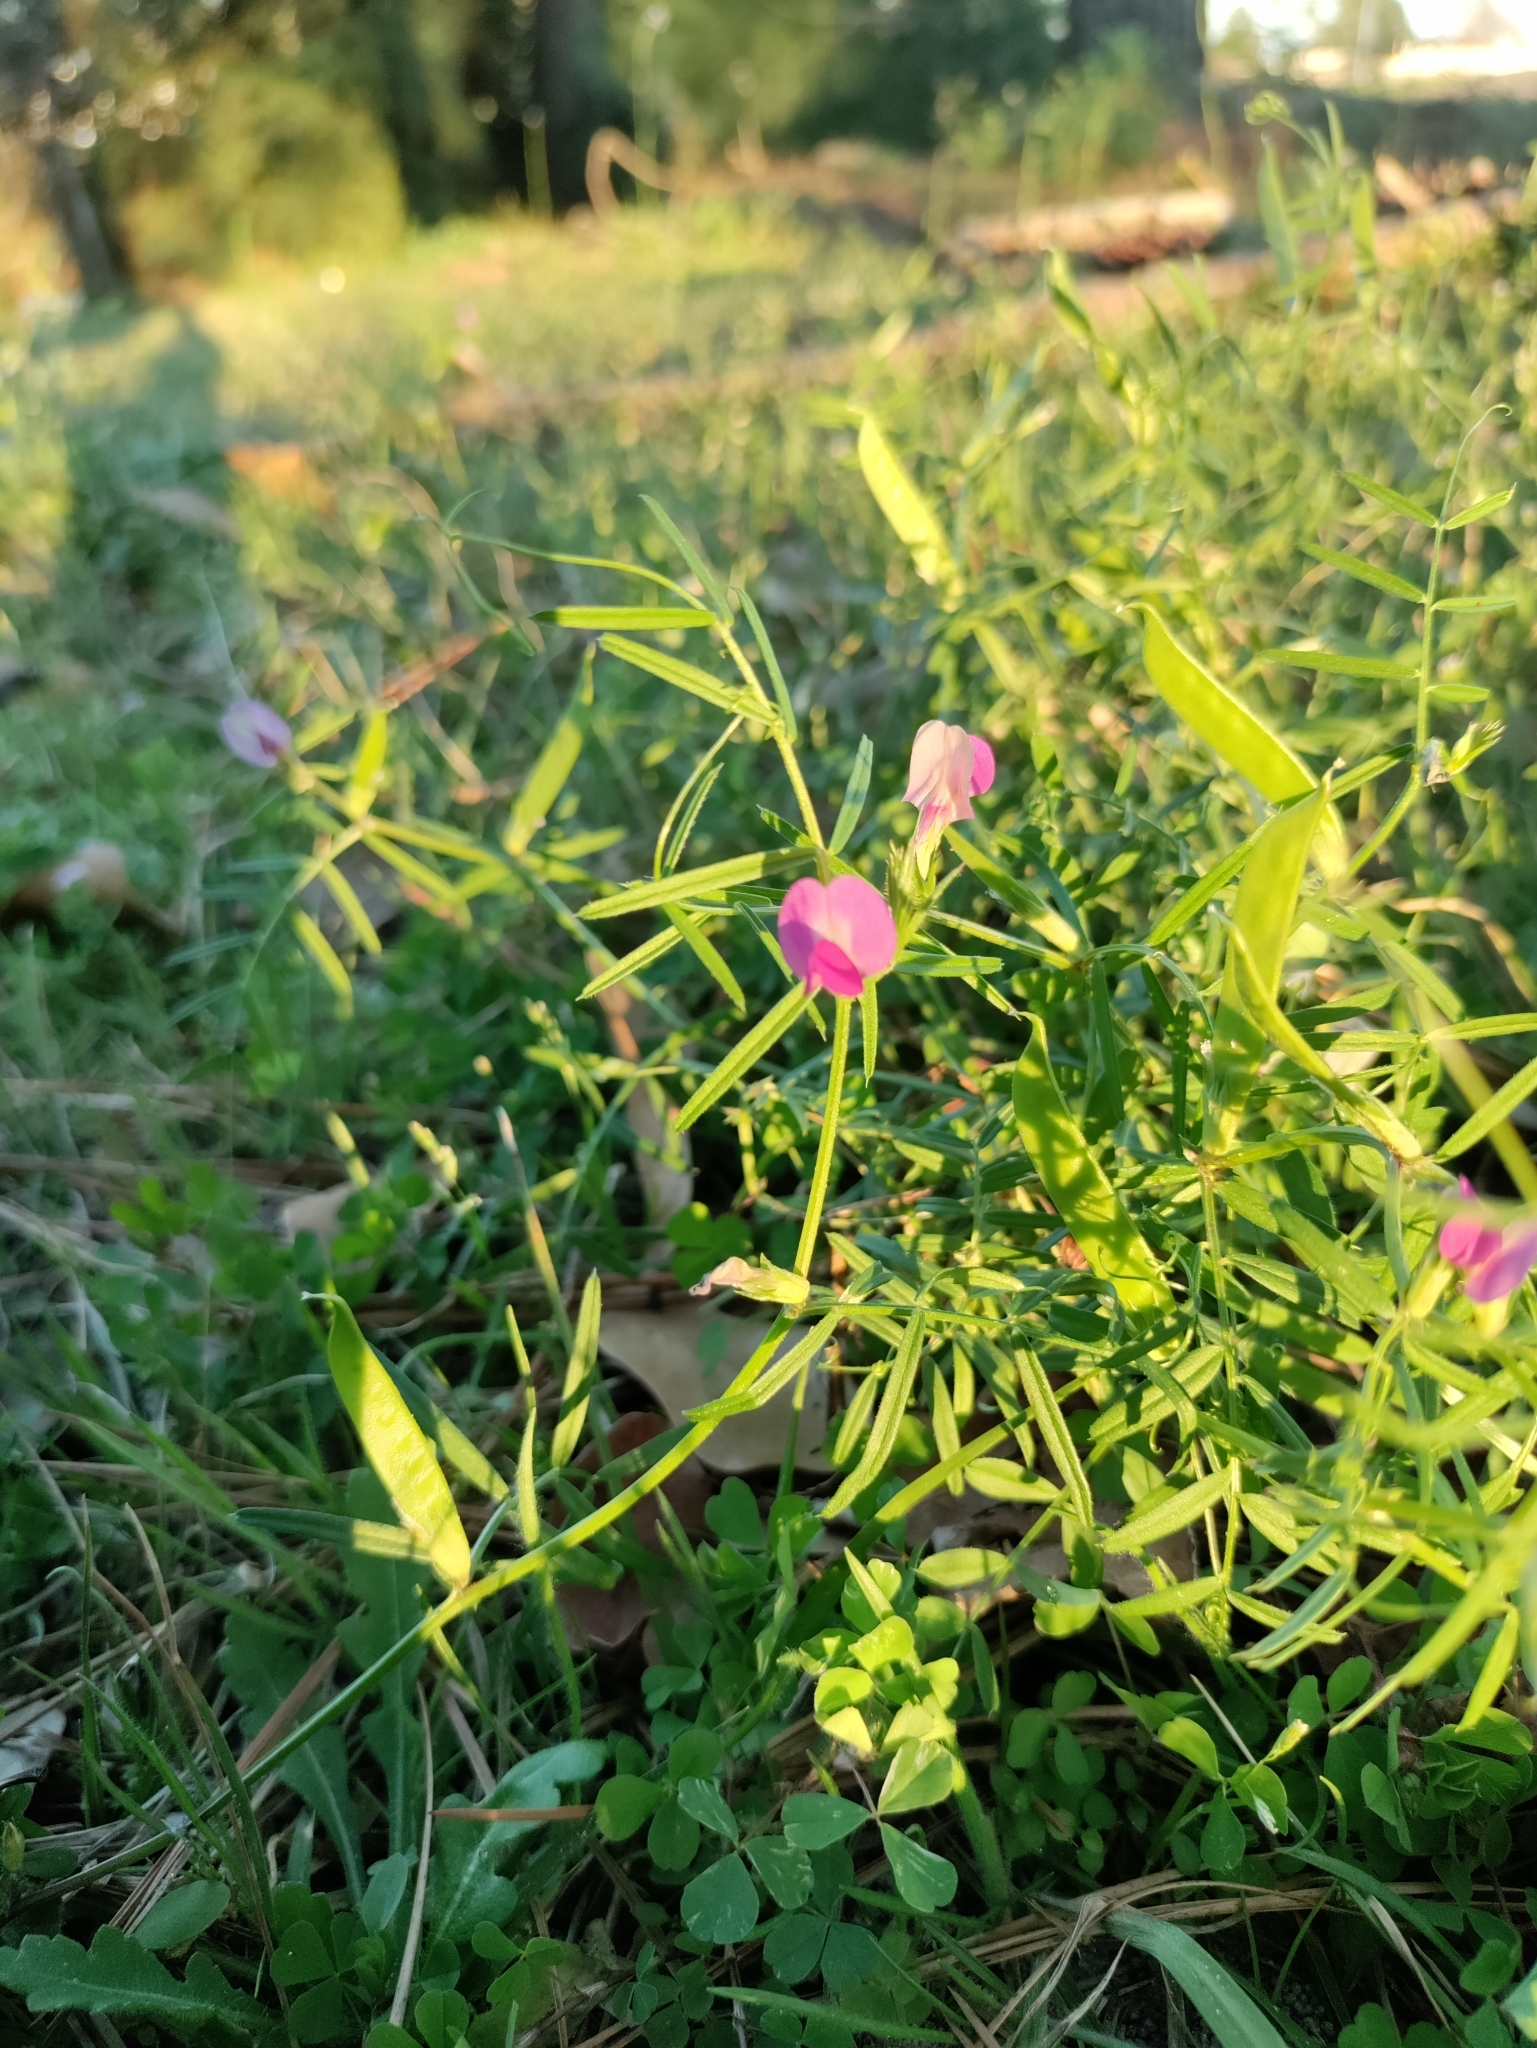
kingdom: Plantae
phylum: Tracheophyta
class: Magnoliopsida
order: Fabales
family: Fabaceae
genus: Vicia
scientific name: Vicia sativa
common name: Garden vetch
